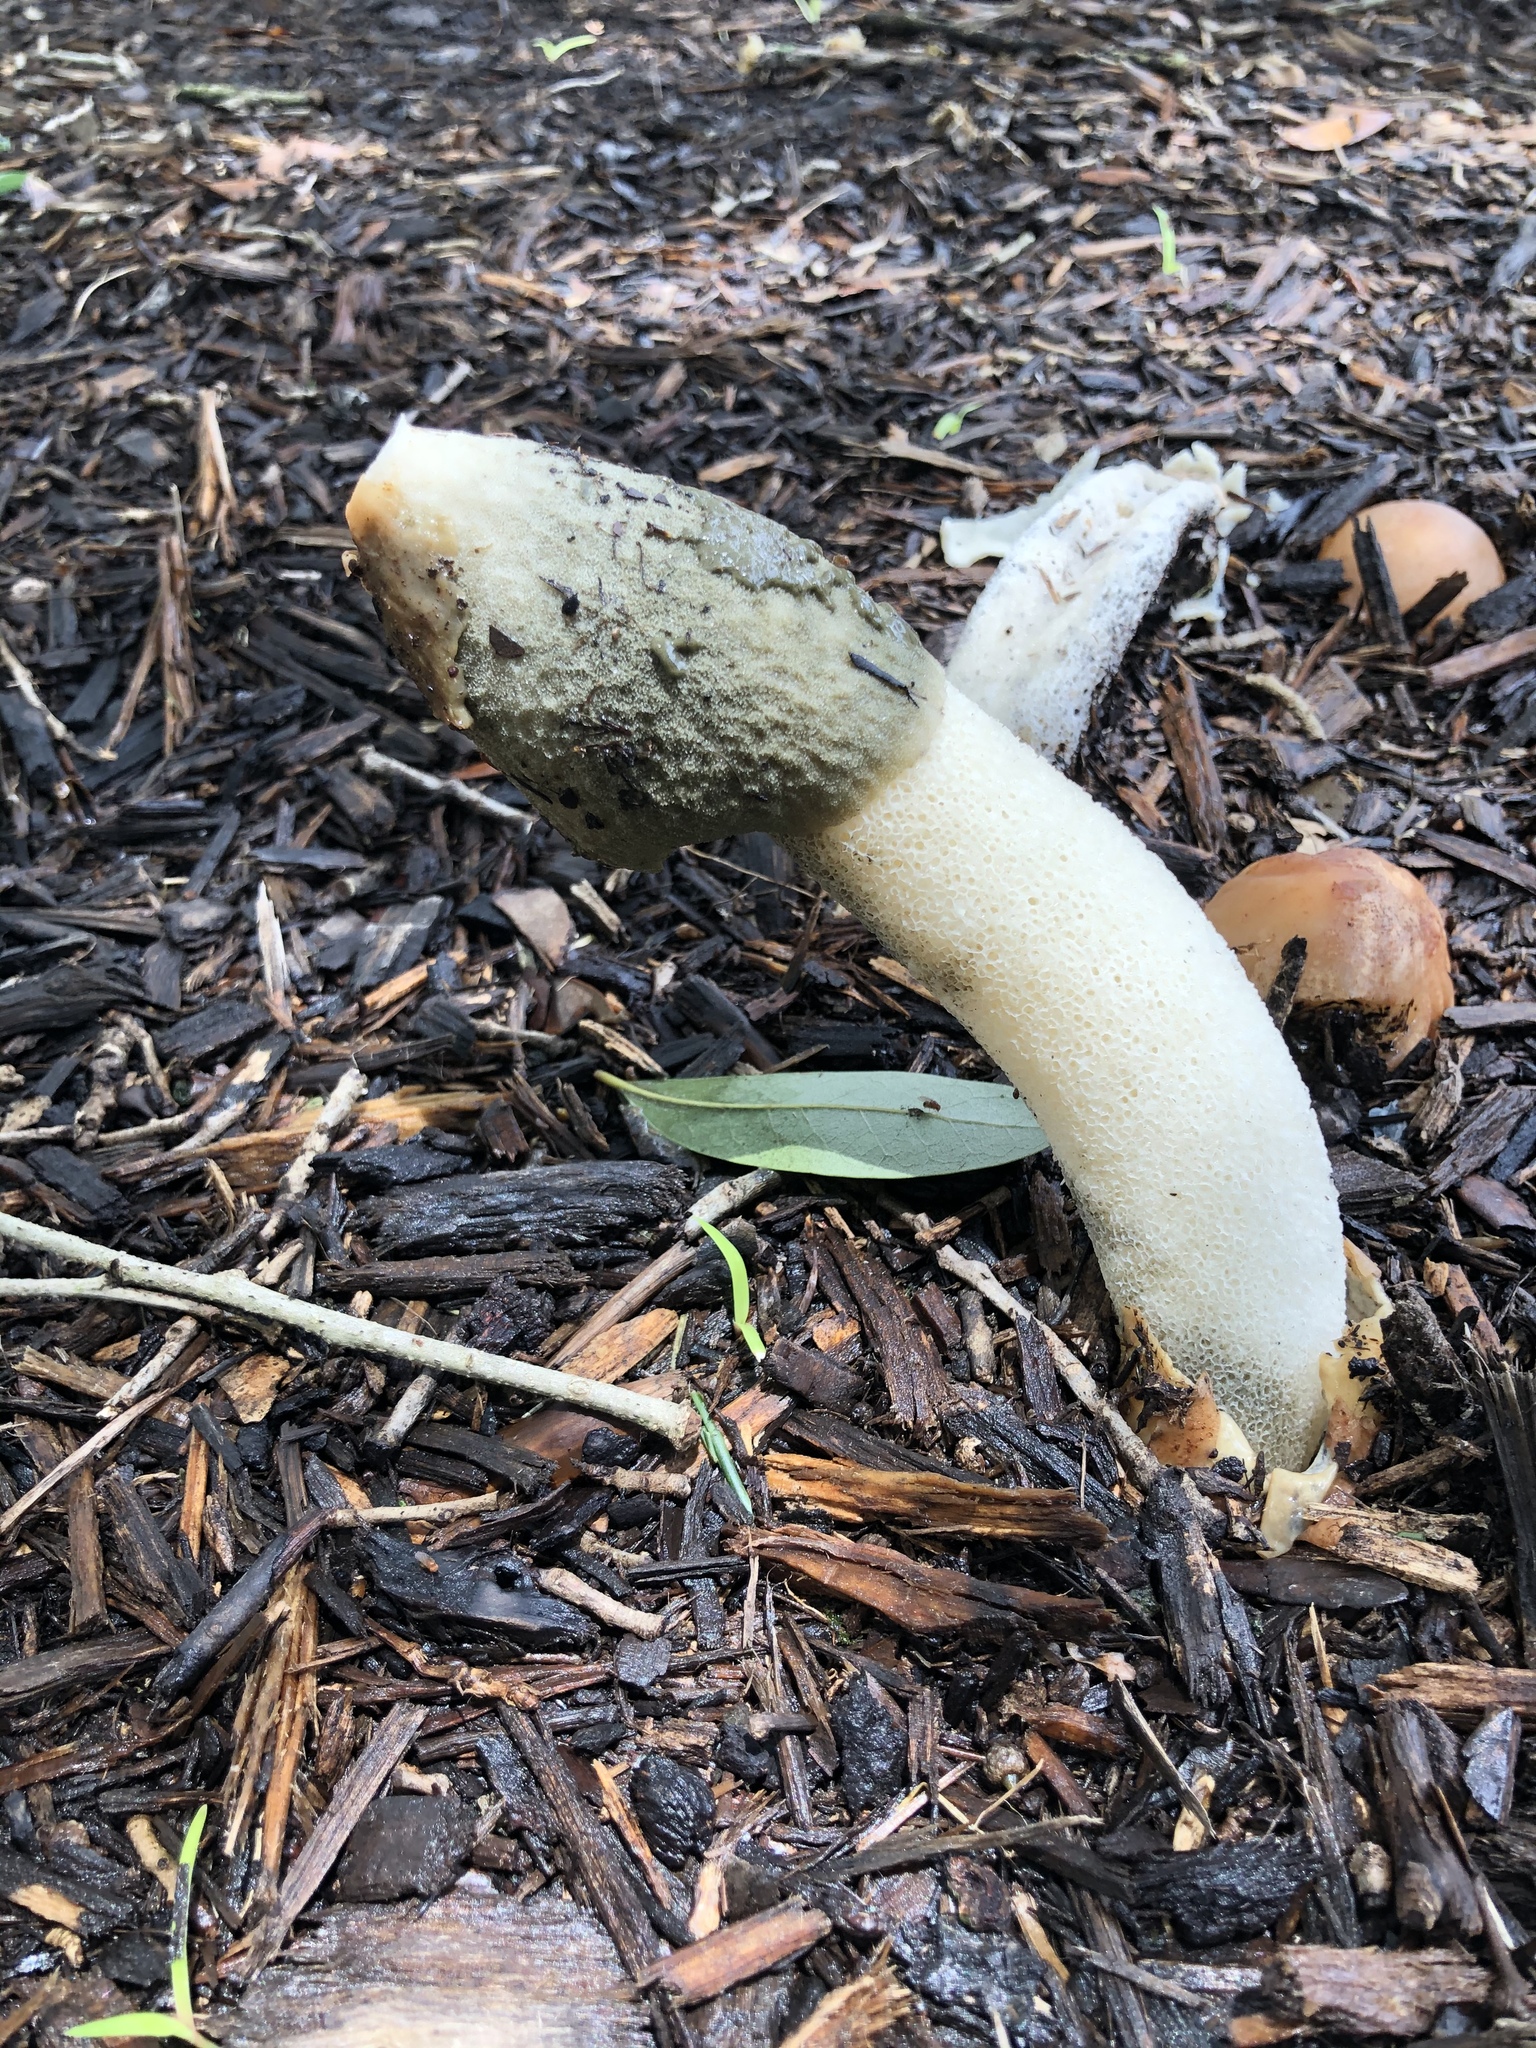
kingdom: Fungi
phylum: Basidiomycota
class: Agaricomycetes
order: Phallales
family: Phallaceae
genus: Phallus
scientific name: Phallus ravenelii
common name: Ravenel's stinkhorn
